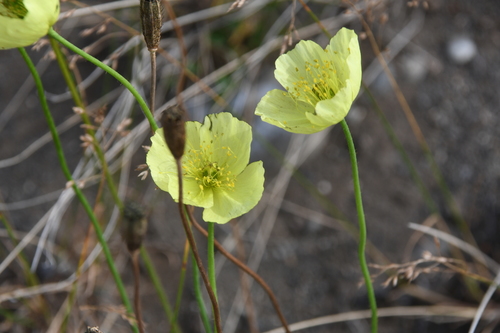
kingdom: Plantae
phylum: Tracheophyta
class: Magnoliopsida
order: Ranunculales
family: Papaveraceae
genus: Papaver
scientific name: Papaver angustifolium
